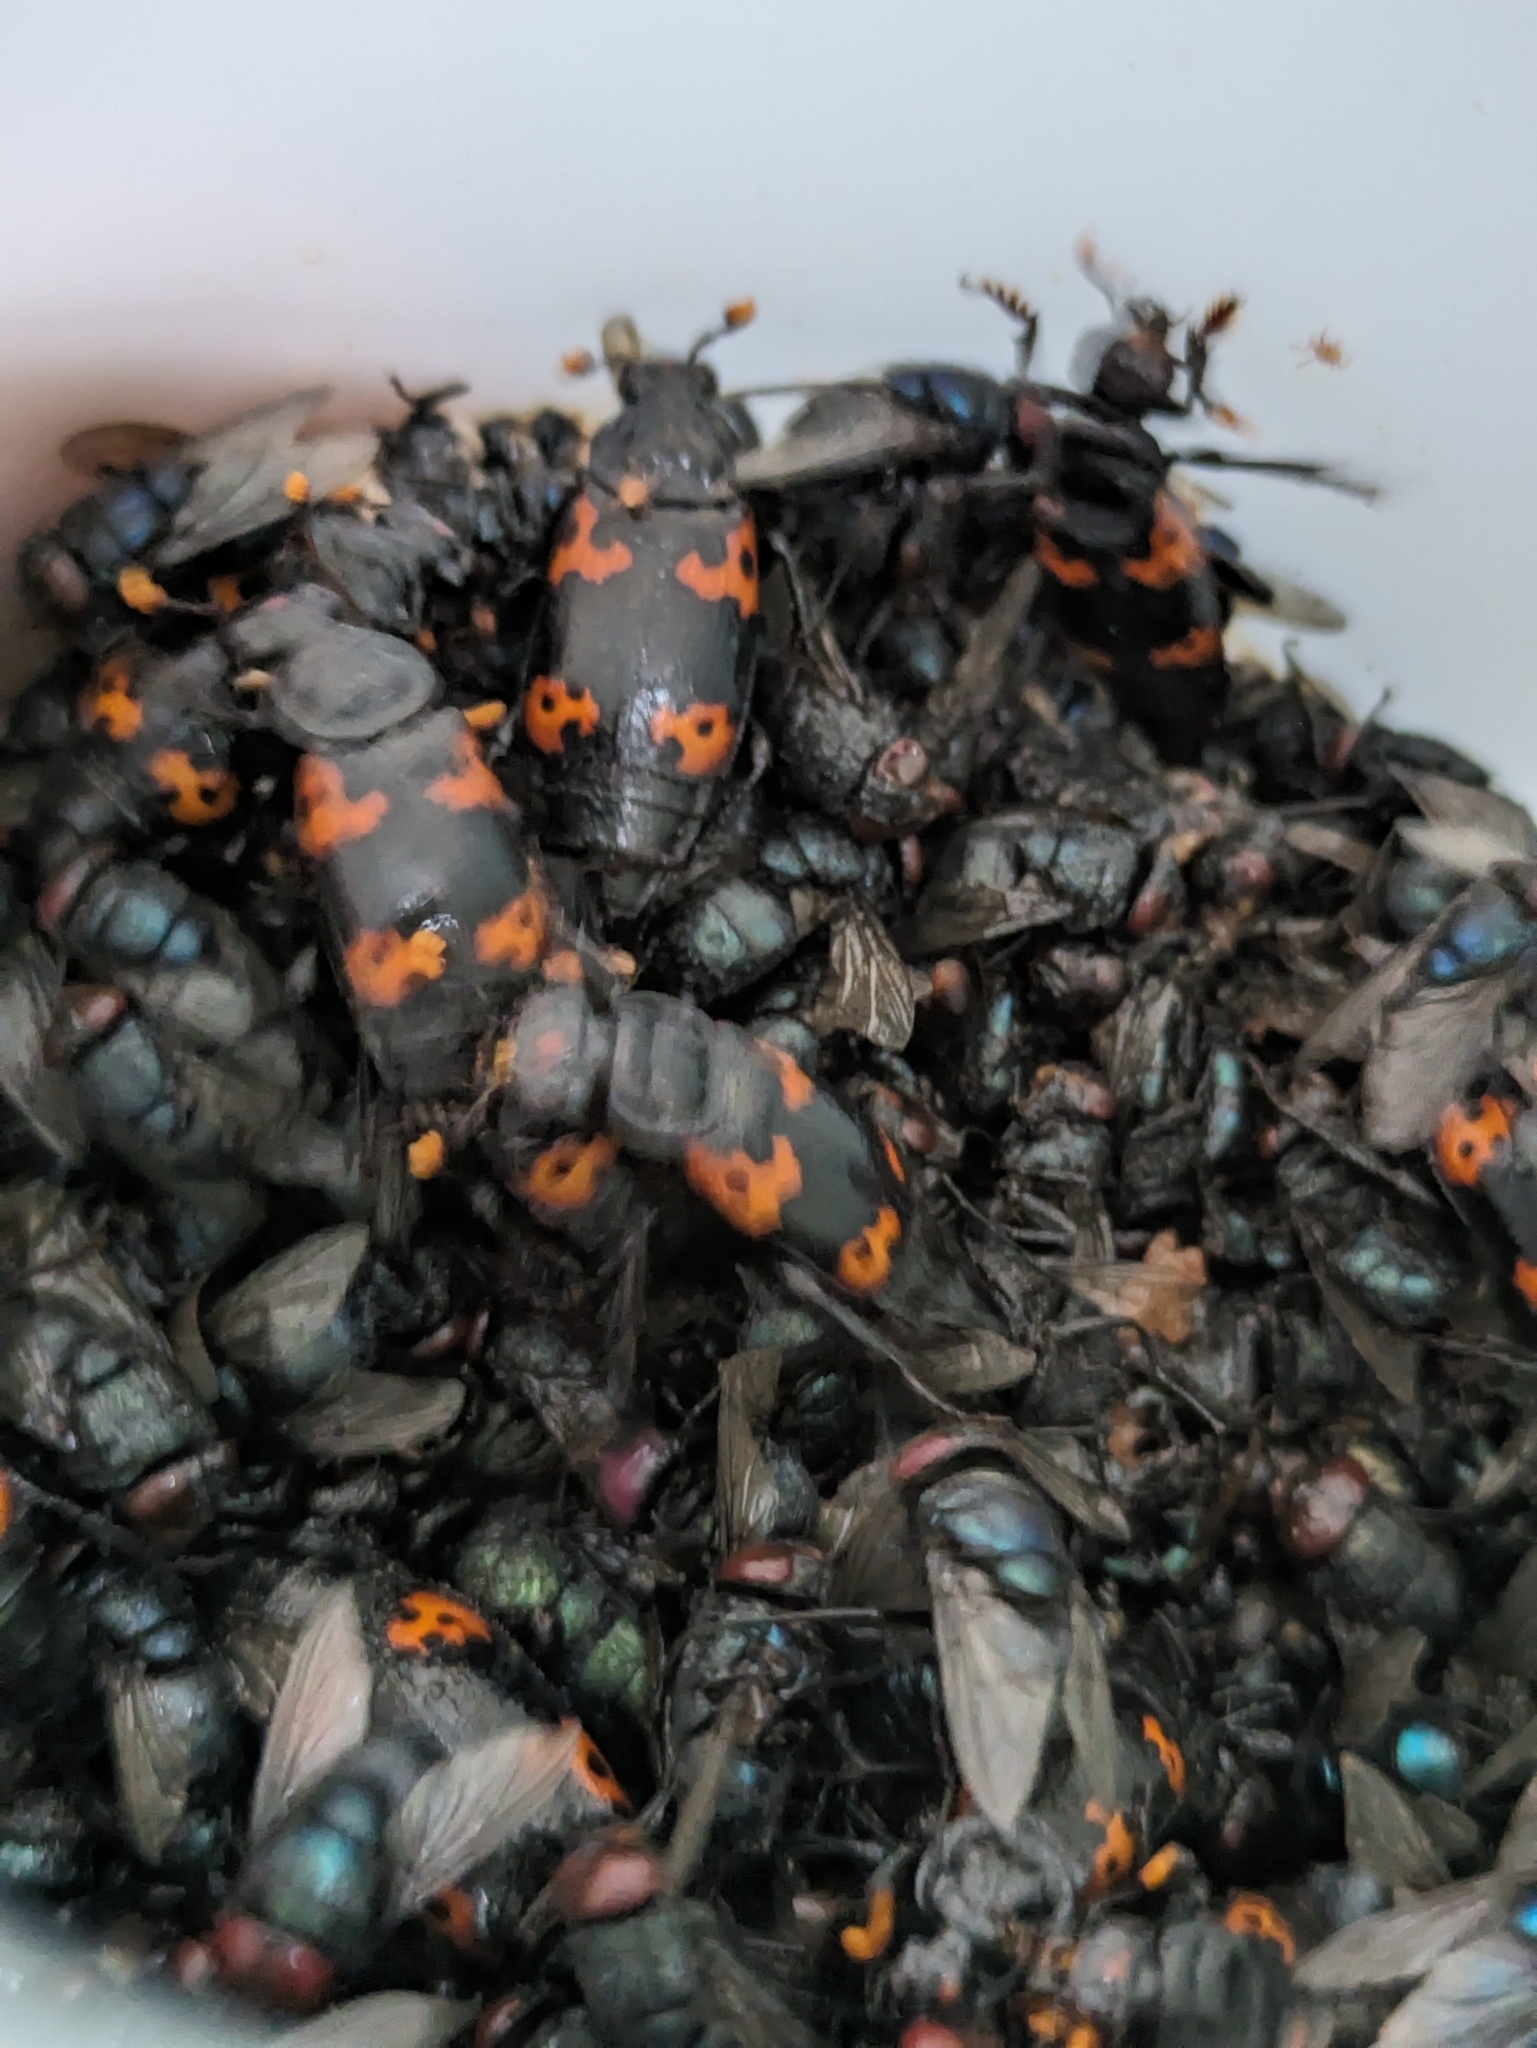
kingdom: Animalia
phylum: Arthropoda
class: Insecta
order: Coleoptera
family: Staphylinidae
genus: Nicrophorus
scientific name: Nicrophorus nepalensis
